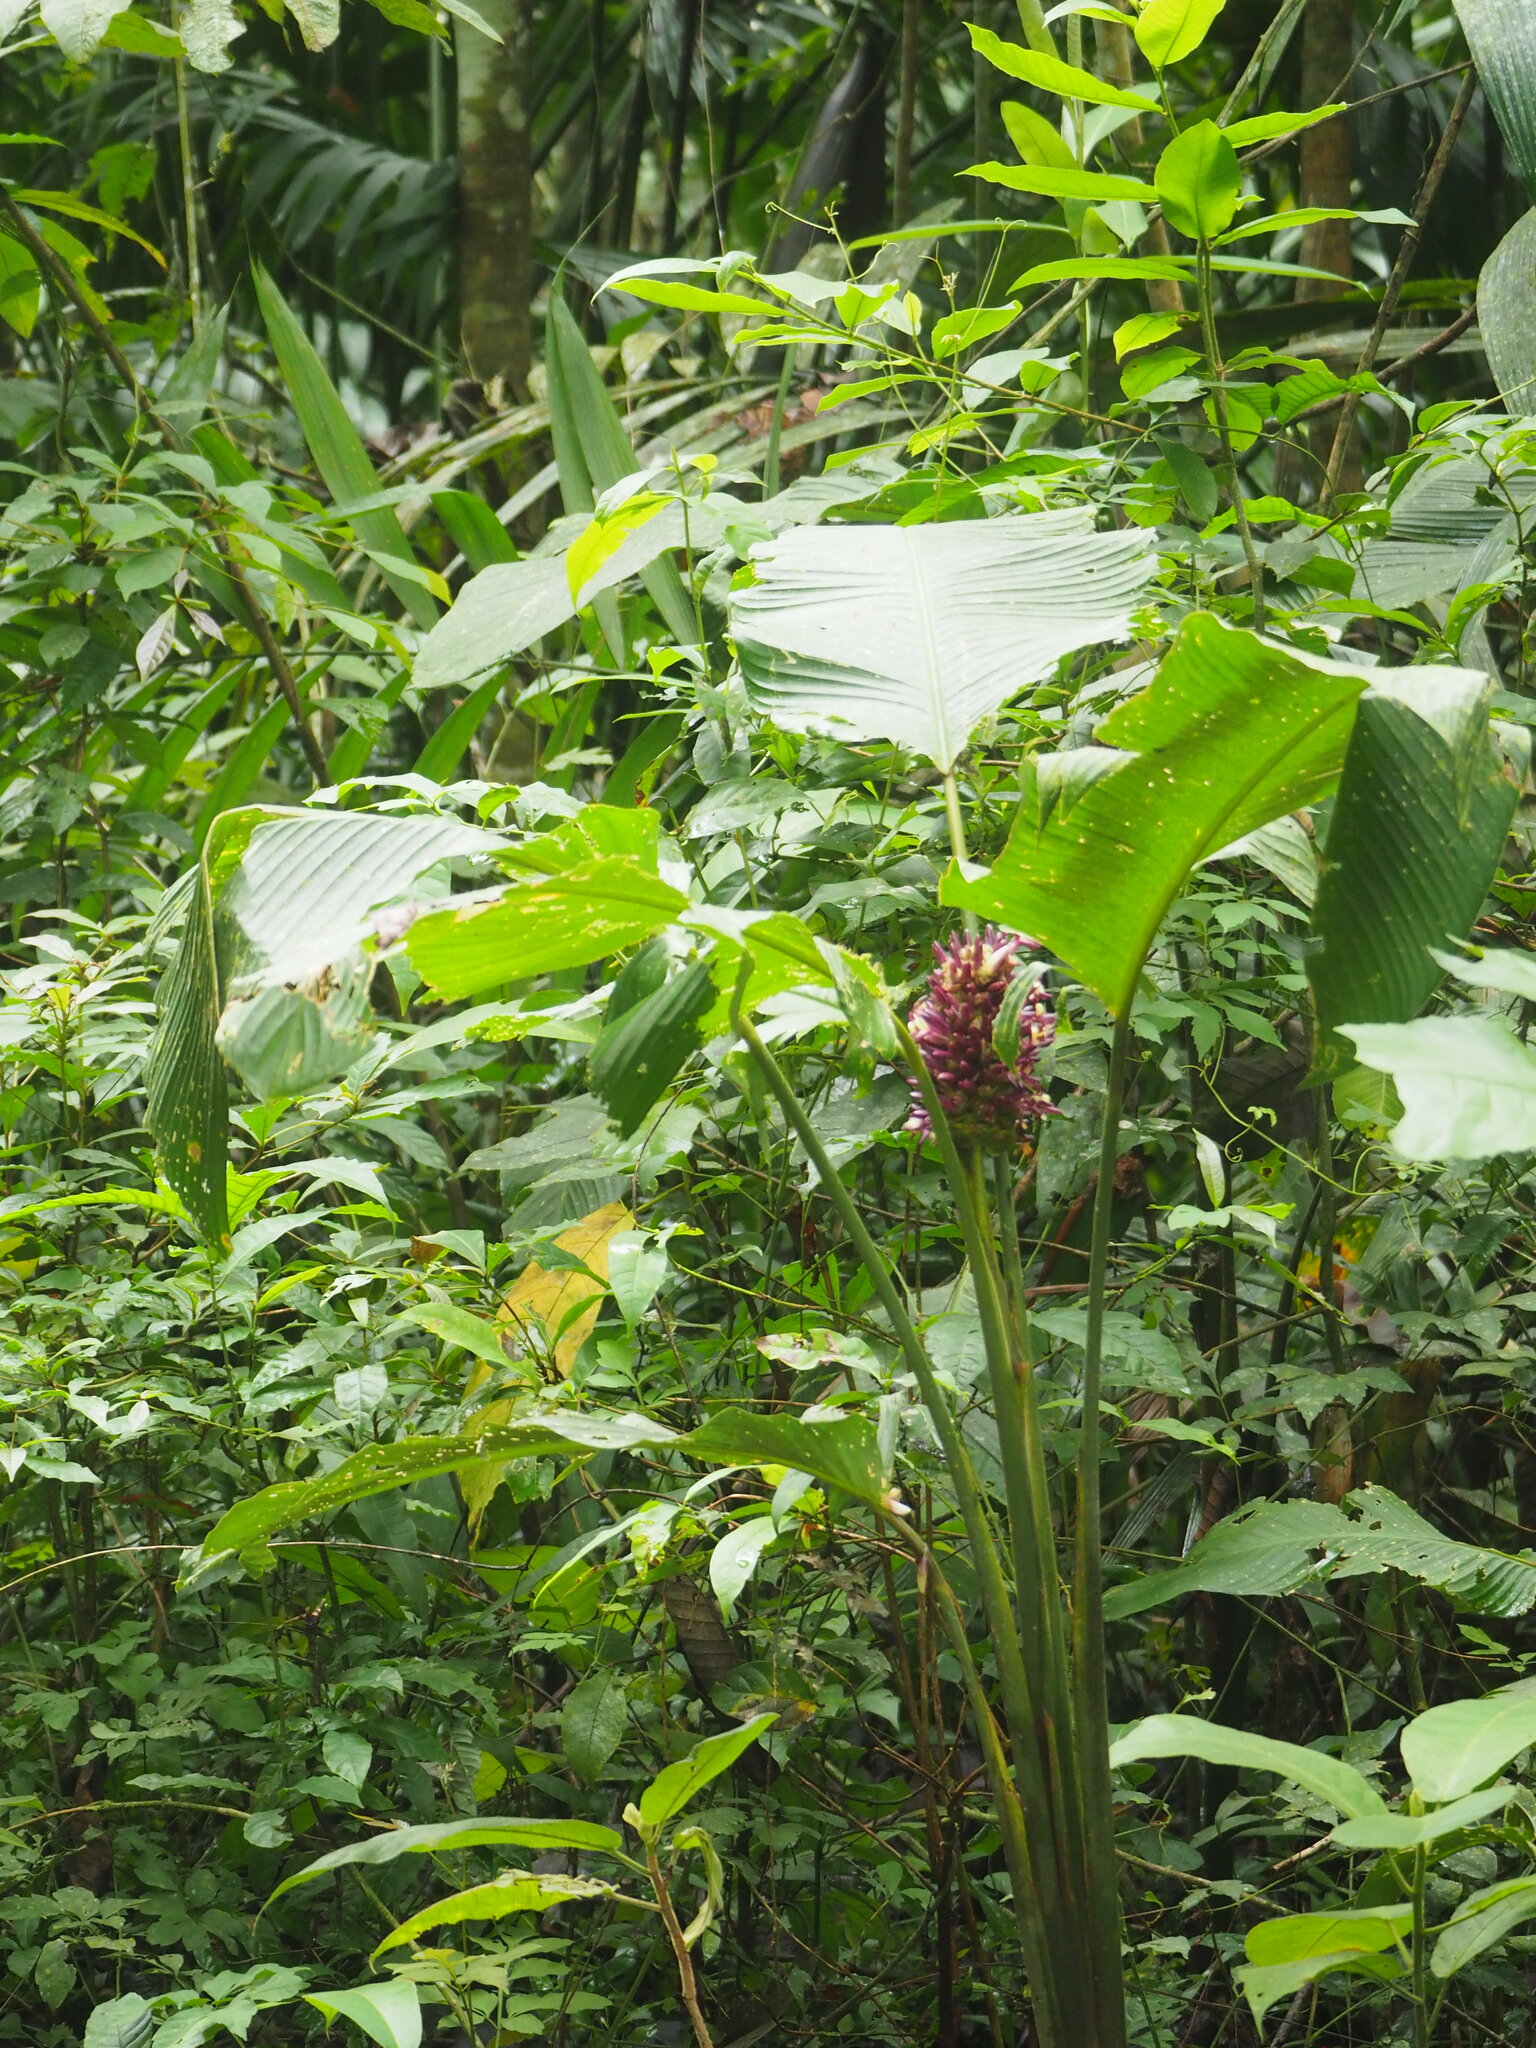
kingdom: Plantae
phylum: Tracheophyta
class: Liliopsida
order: Zingiberales
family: Marantaceae
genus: Goeppertia
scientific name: Goeppertia latifolia
